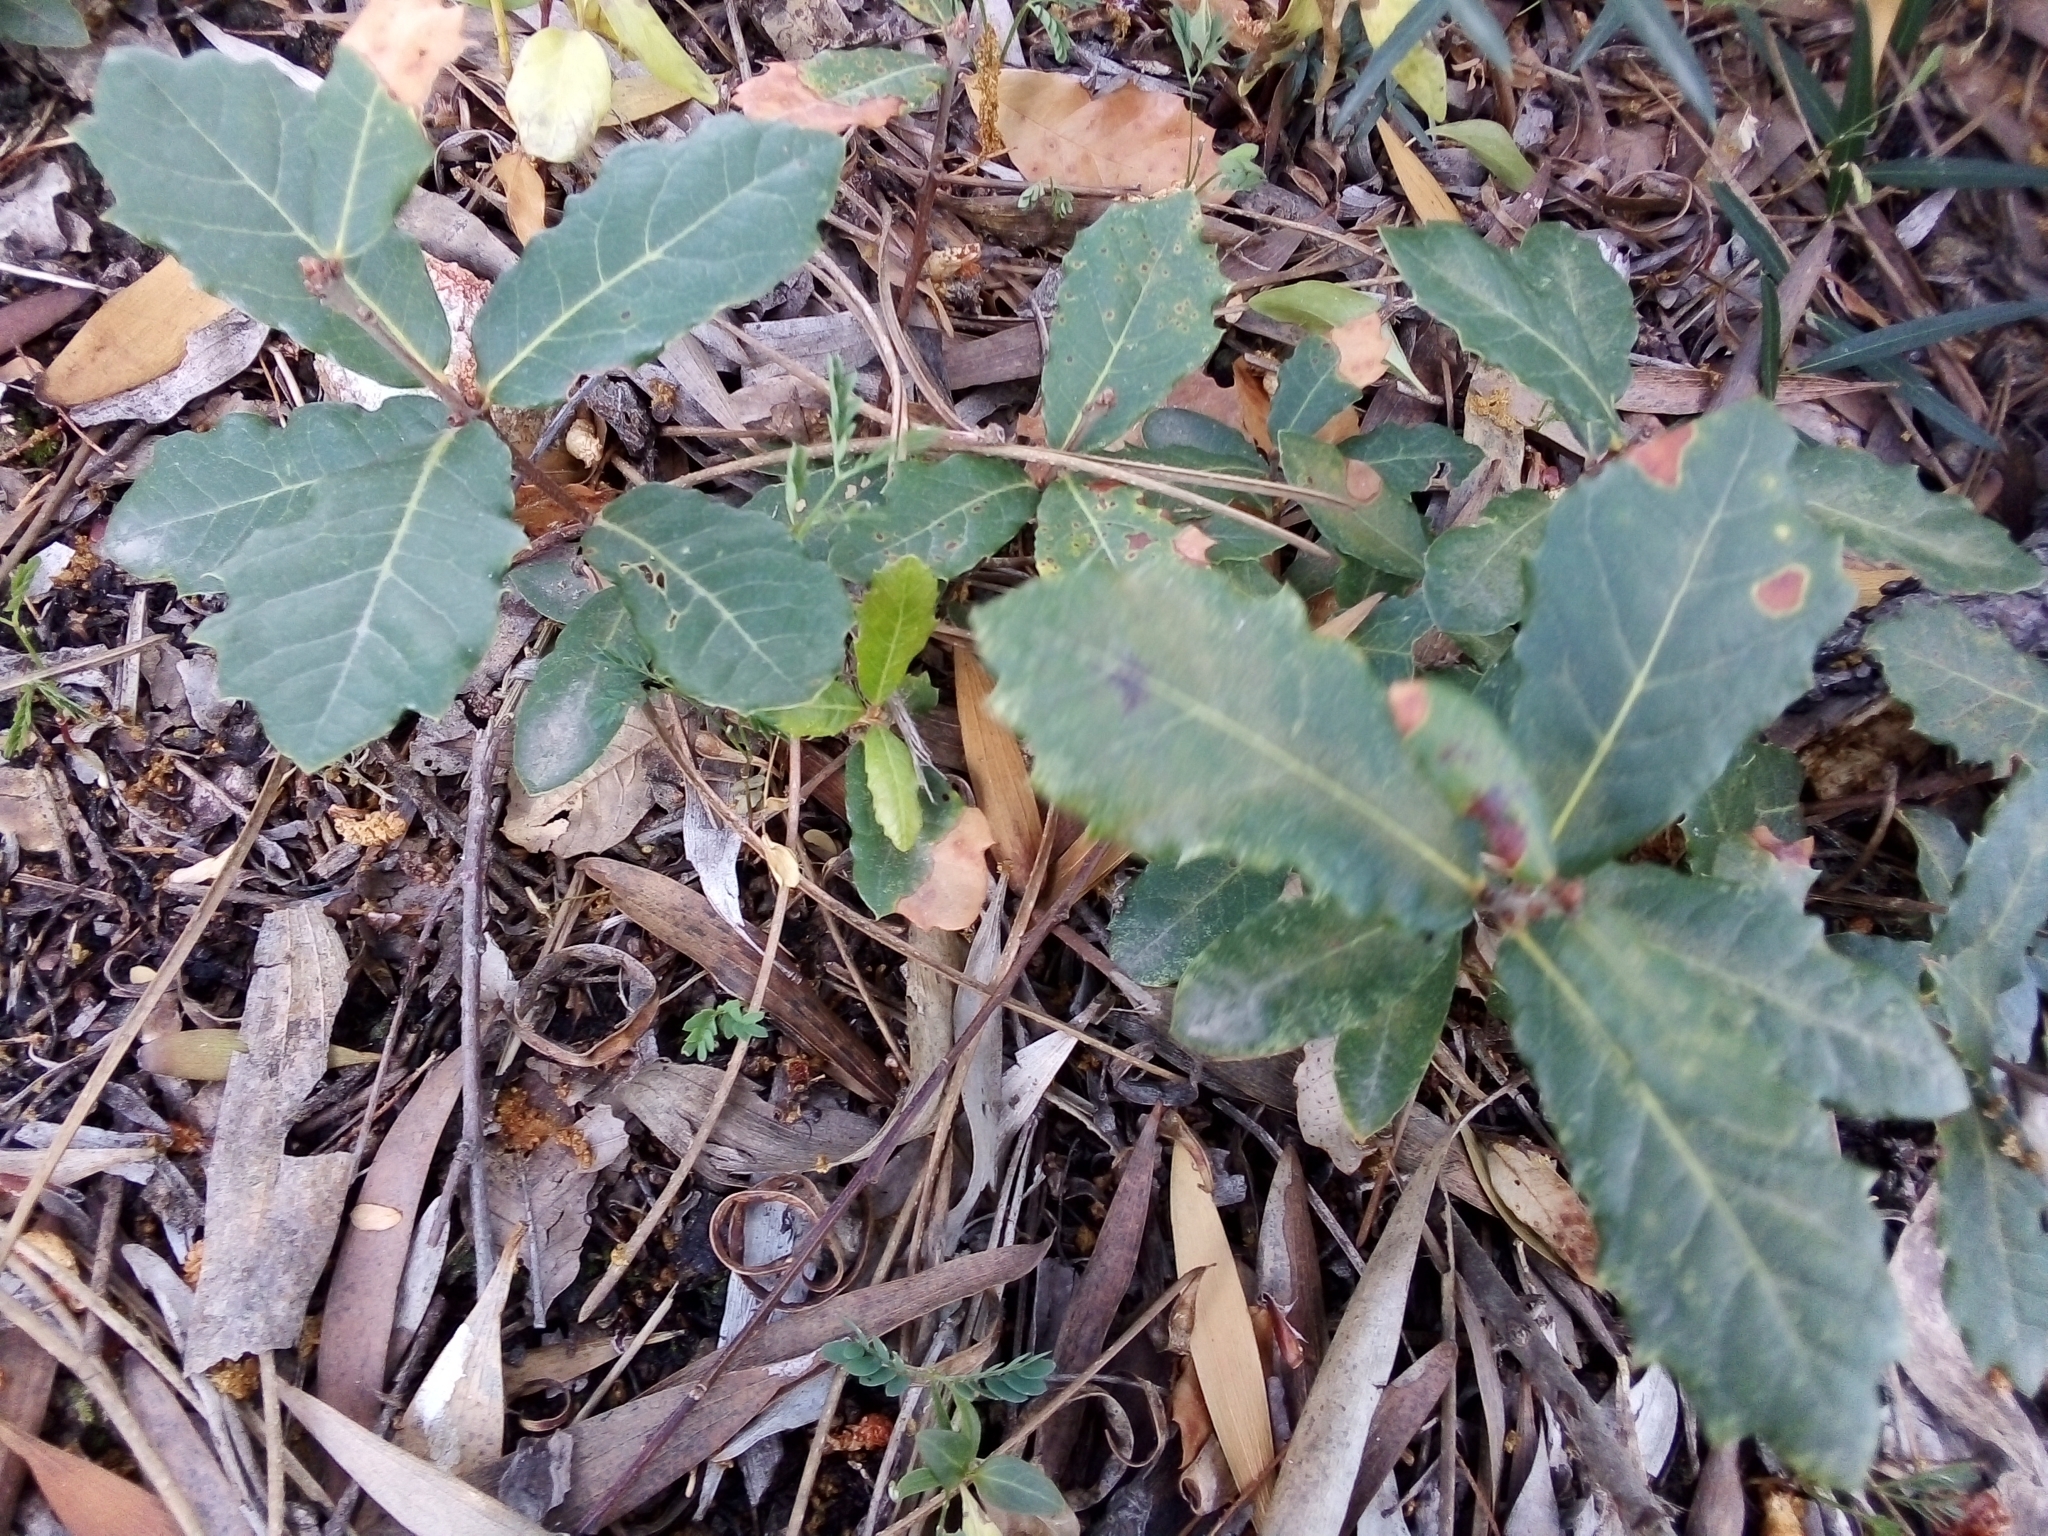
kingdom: Plantae
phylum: Tracheophyta
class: Magnoliopsida
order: Fagales
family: Fagaceae
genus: Quercus
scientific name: Quercus lusitanica
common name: Scrub gall oak
